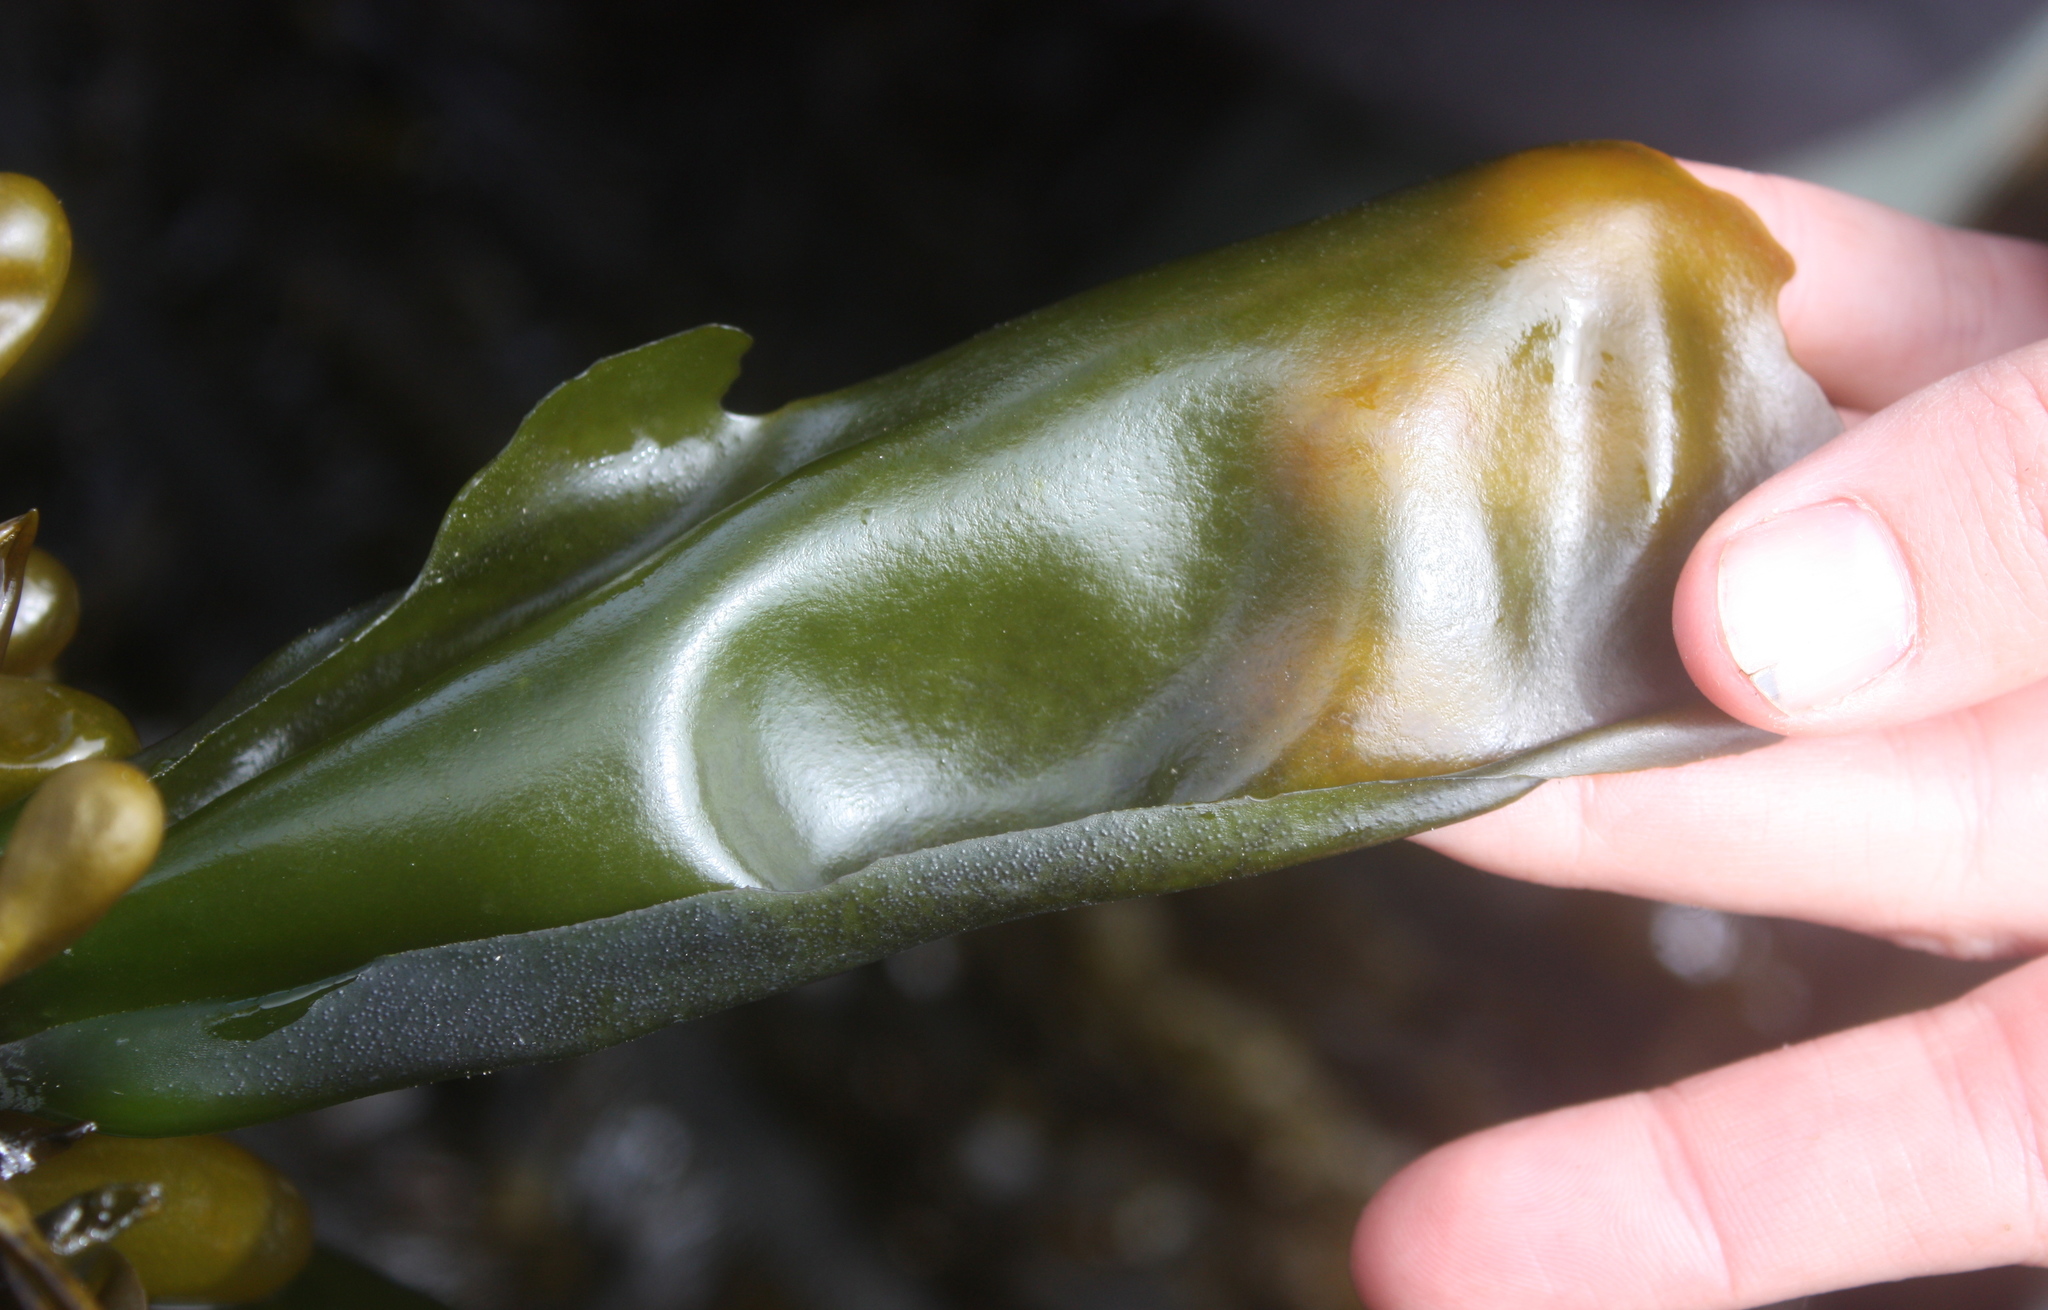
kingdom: Plantae
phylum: Rhodophyta
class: Florideophyceae
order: Gigartinales
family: Gigartinaceae
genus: Mazzaella
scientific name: Mazzaella flaccida
